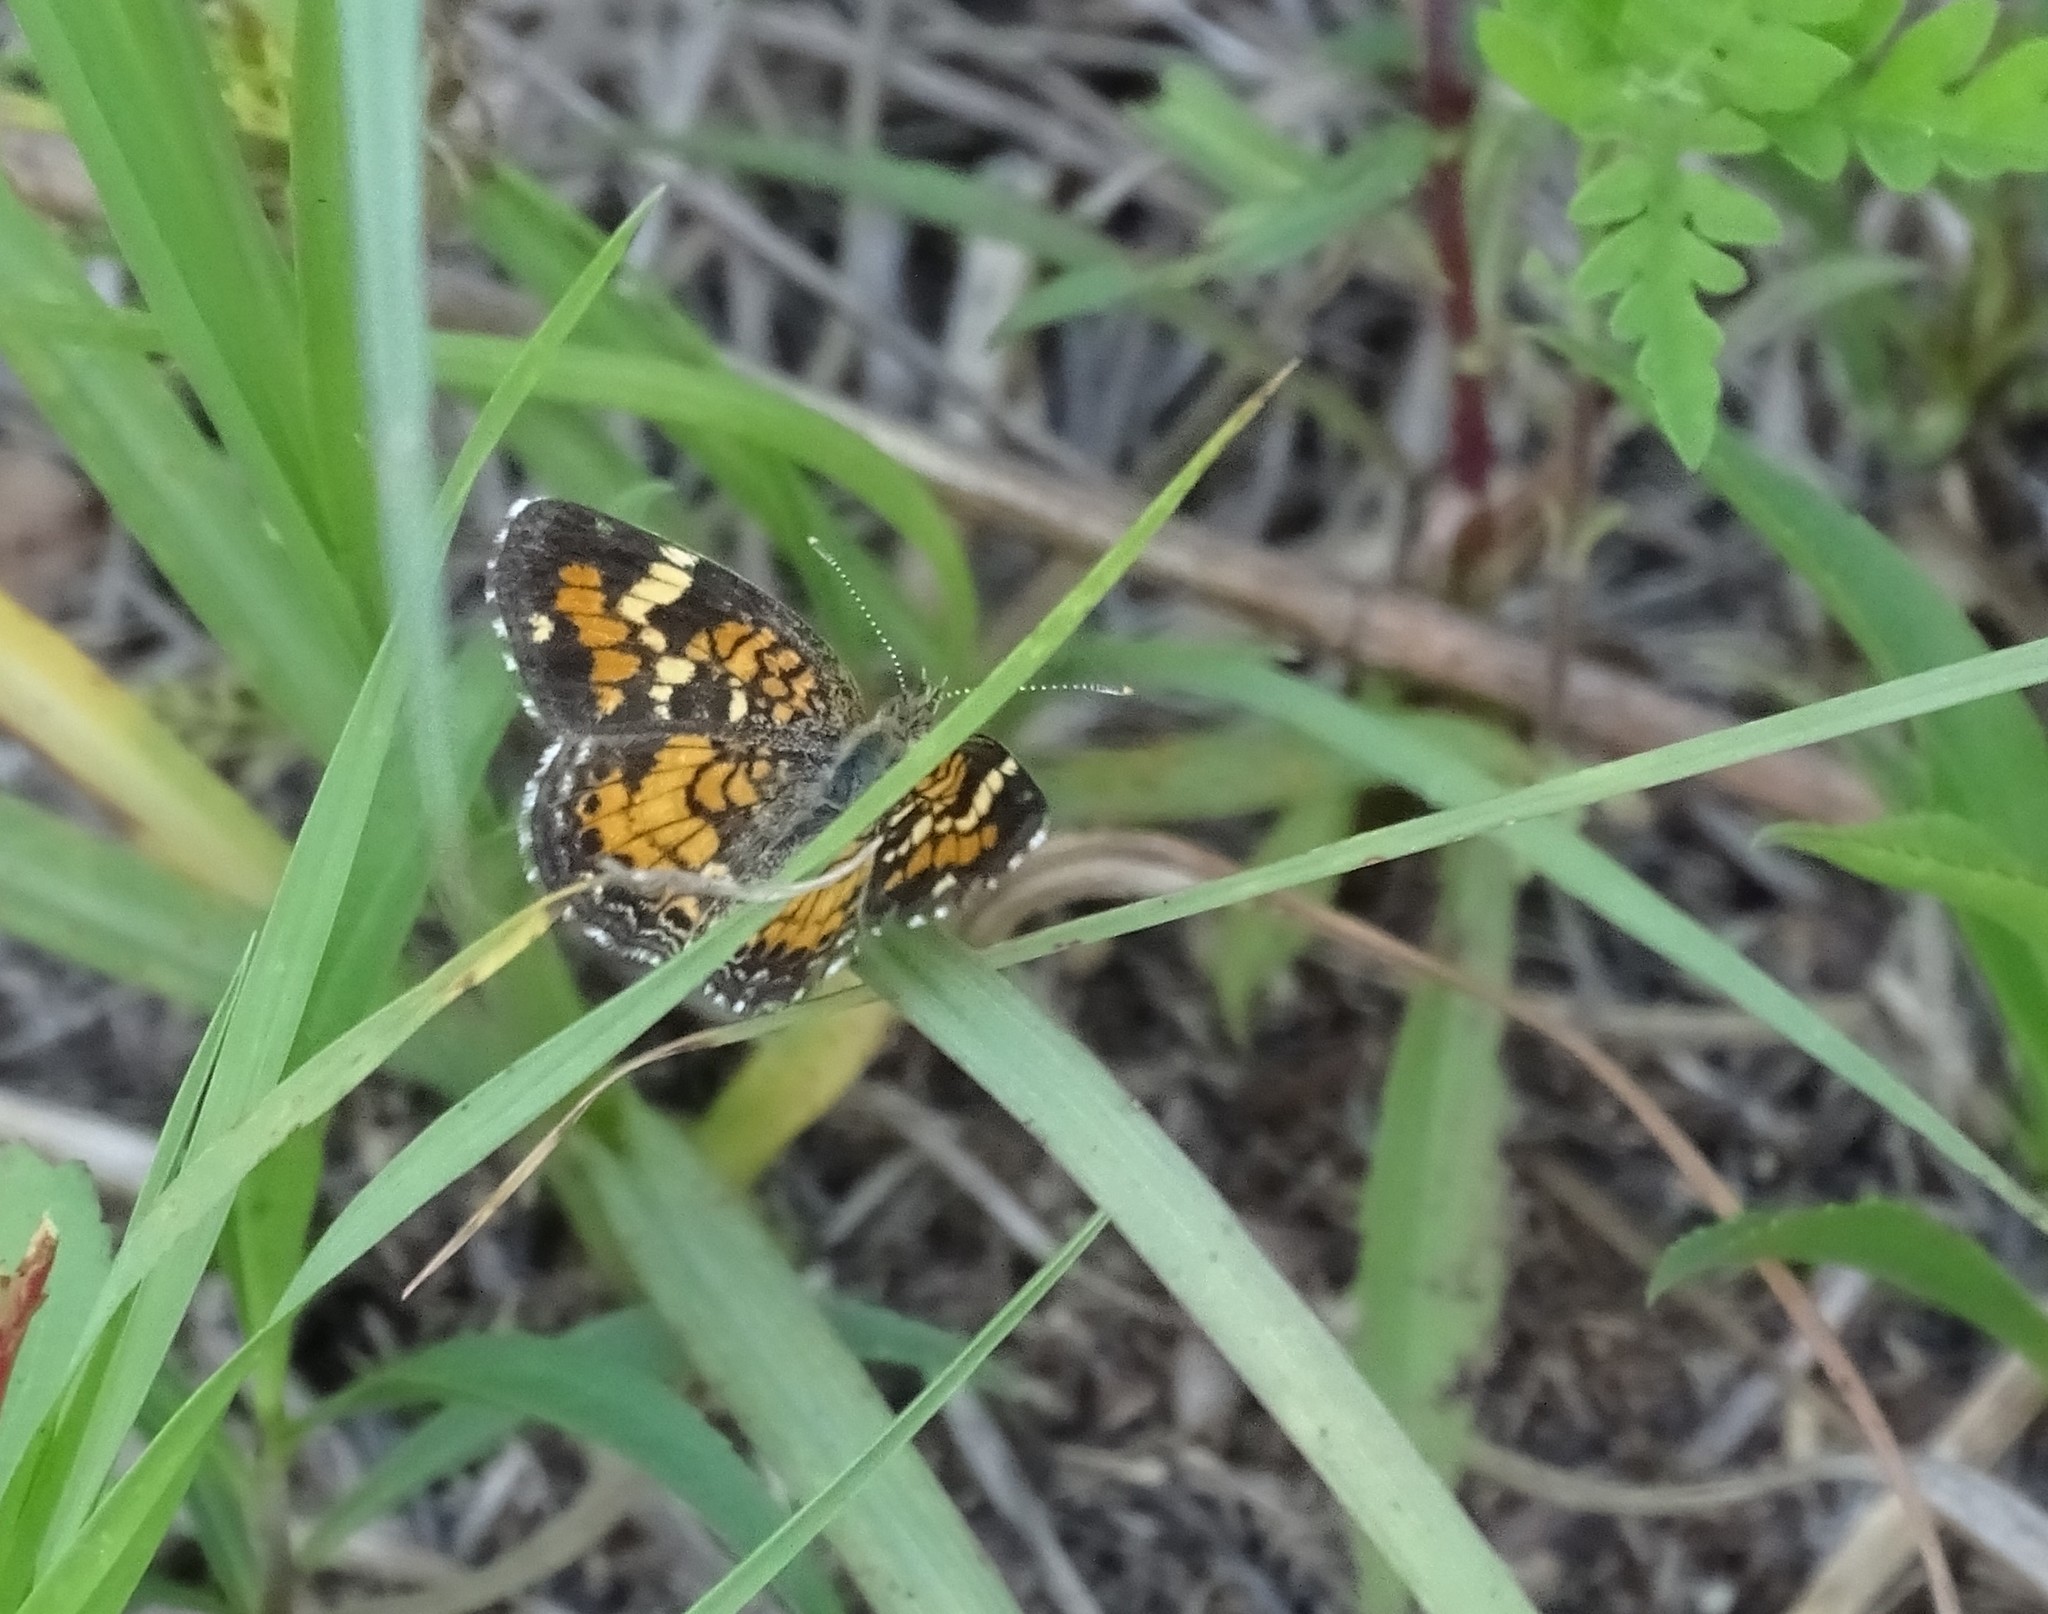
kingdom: Animalia
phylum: Arthropoda
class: Insecta
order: Lepidoptera
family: Nymphalidae
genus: Phyciodes
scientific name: Phyciodes phaon
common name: Phaon crescent
